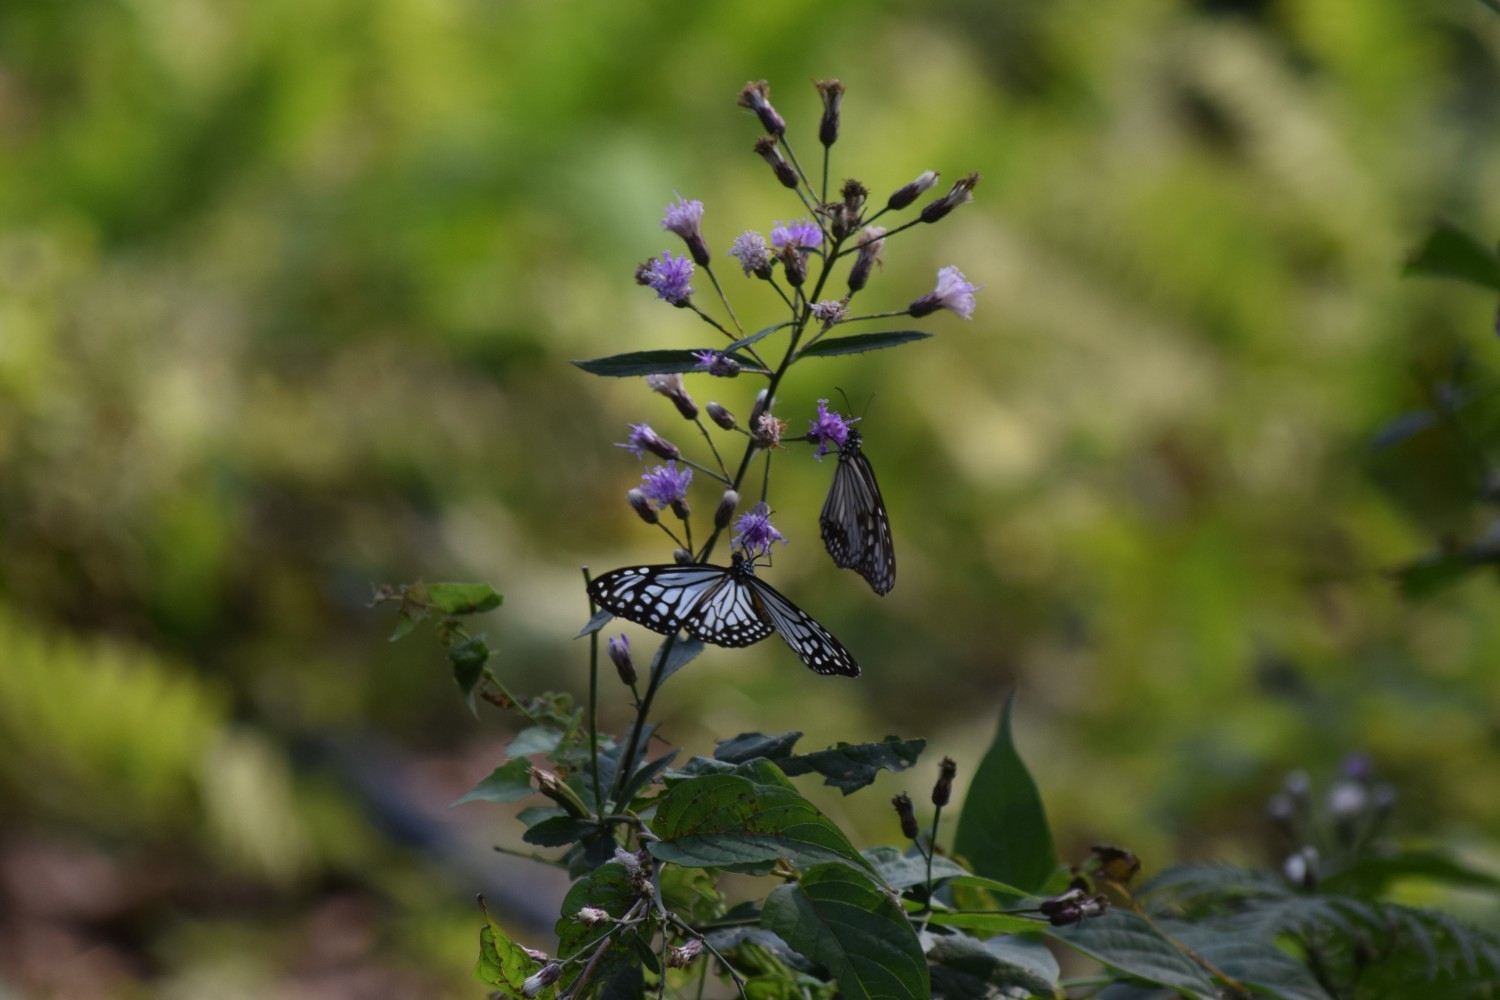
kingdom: Animalia
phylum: Arthropoda
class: Insecta
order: Lepidoptera
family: Nymphalidae
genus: Parantica
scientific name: Parantica aglea
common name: Glassy tiger
